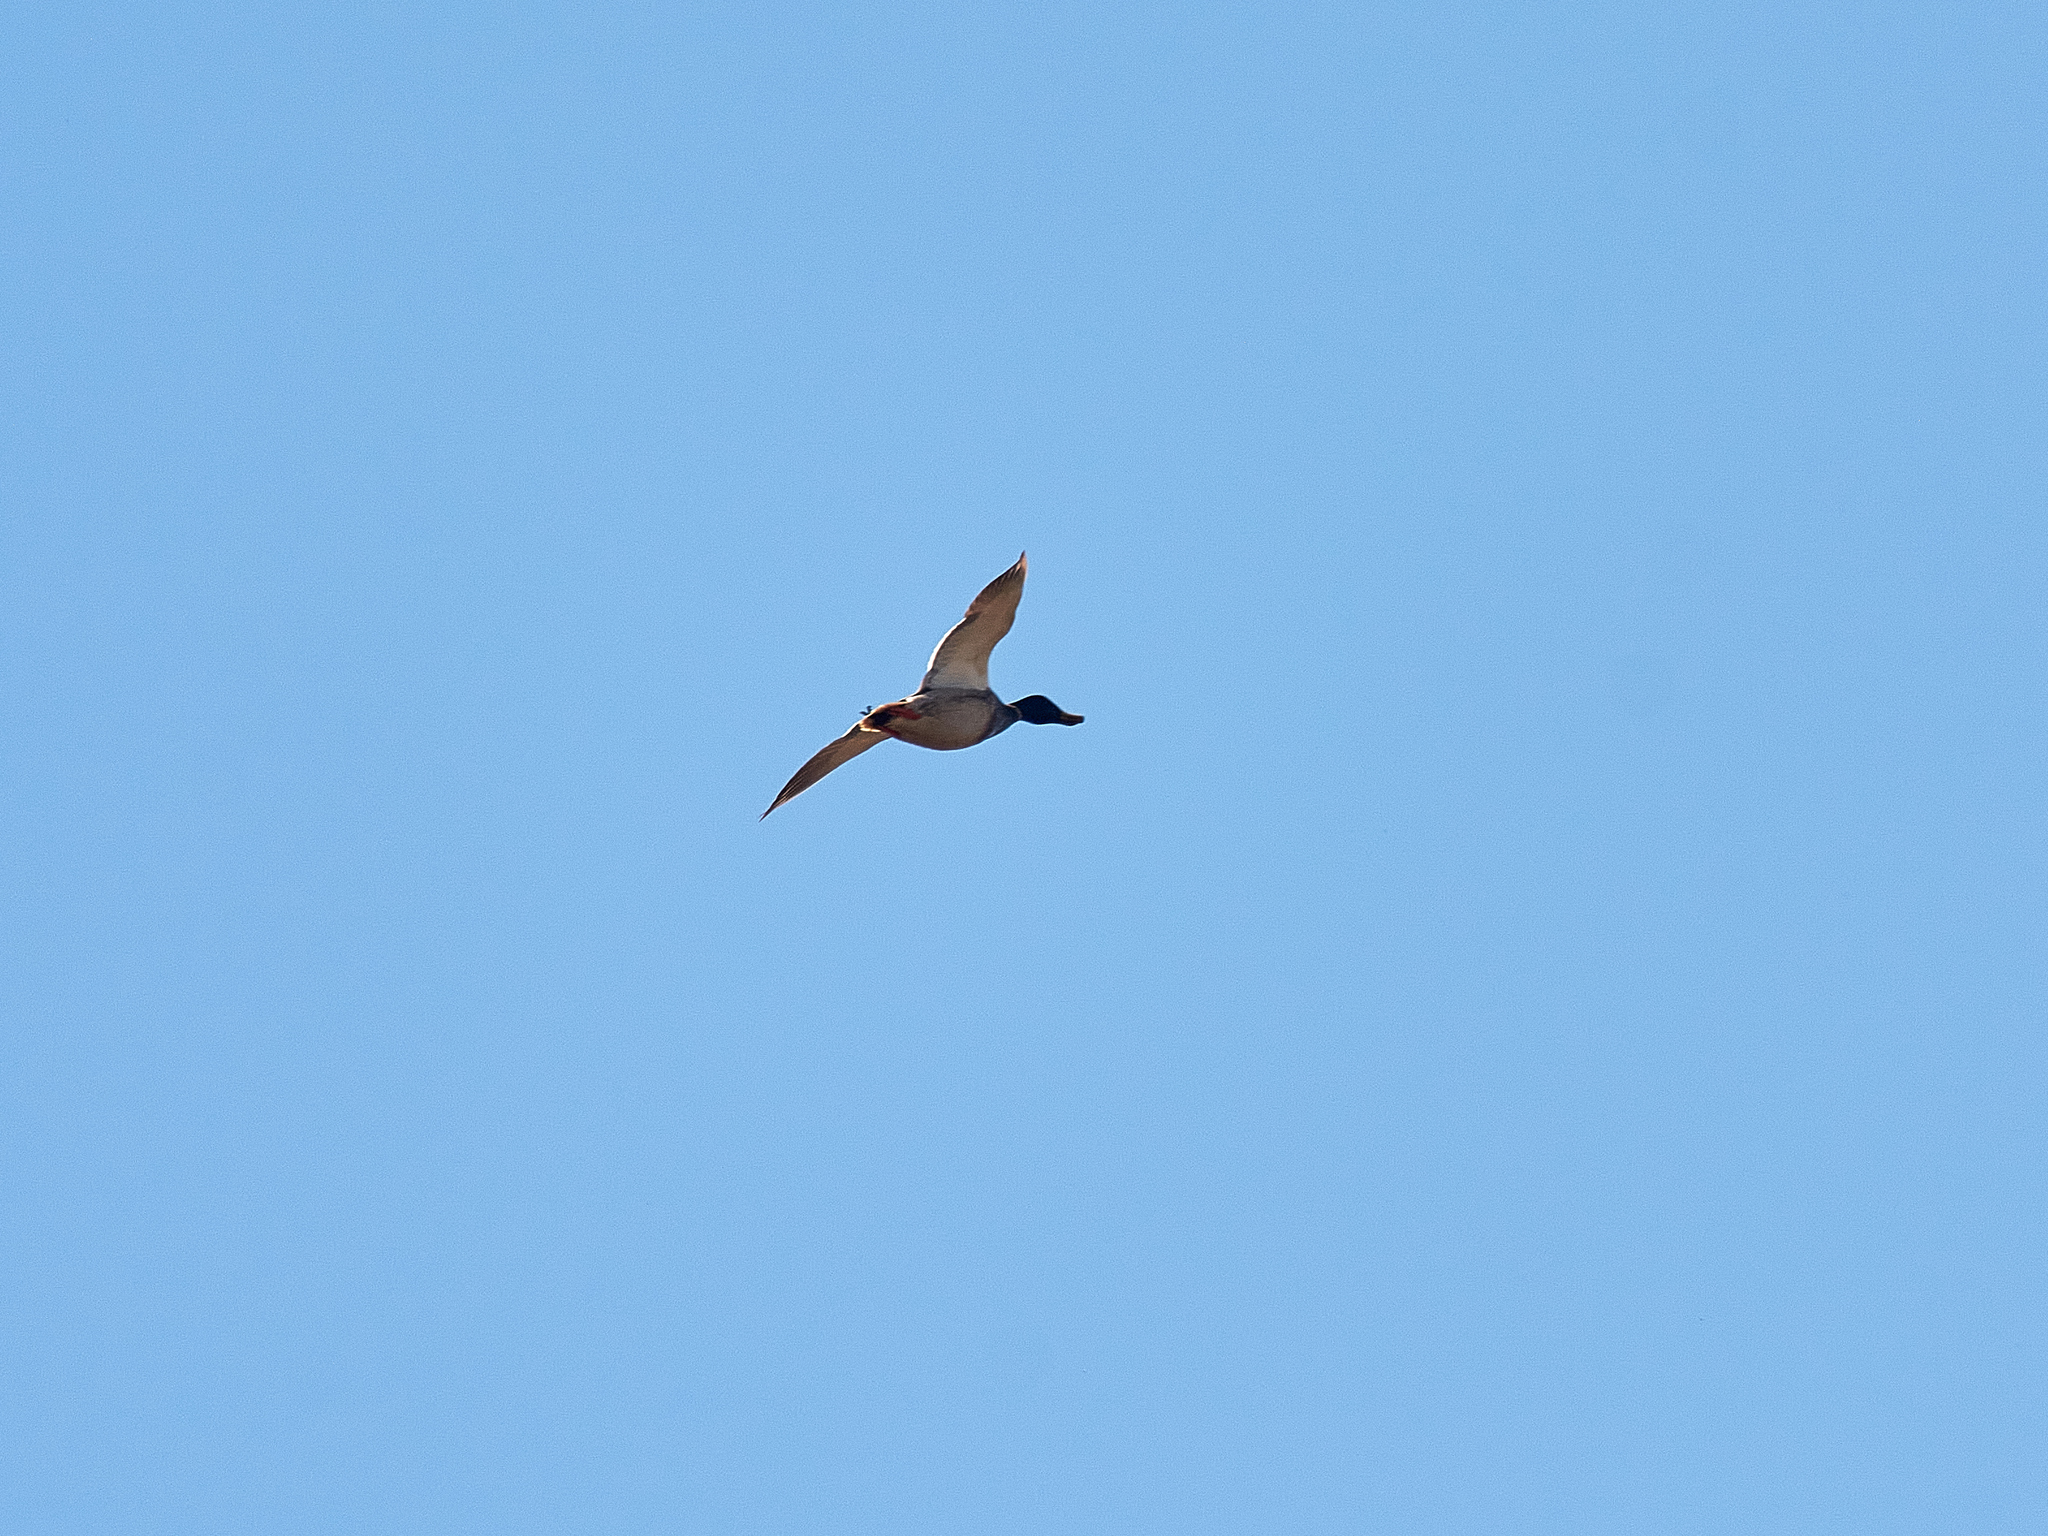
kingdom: Animalia
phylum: Chordata
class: Aves
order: Anseriformes
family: Anatidae
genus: Anas
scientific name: Anas platyrhynchos
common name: Mallard
